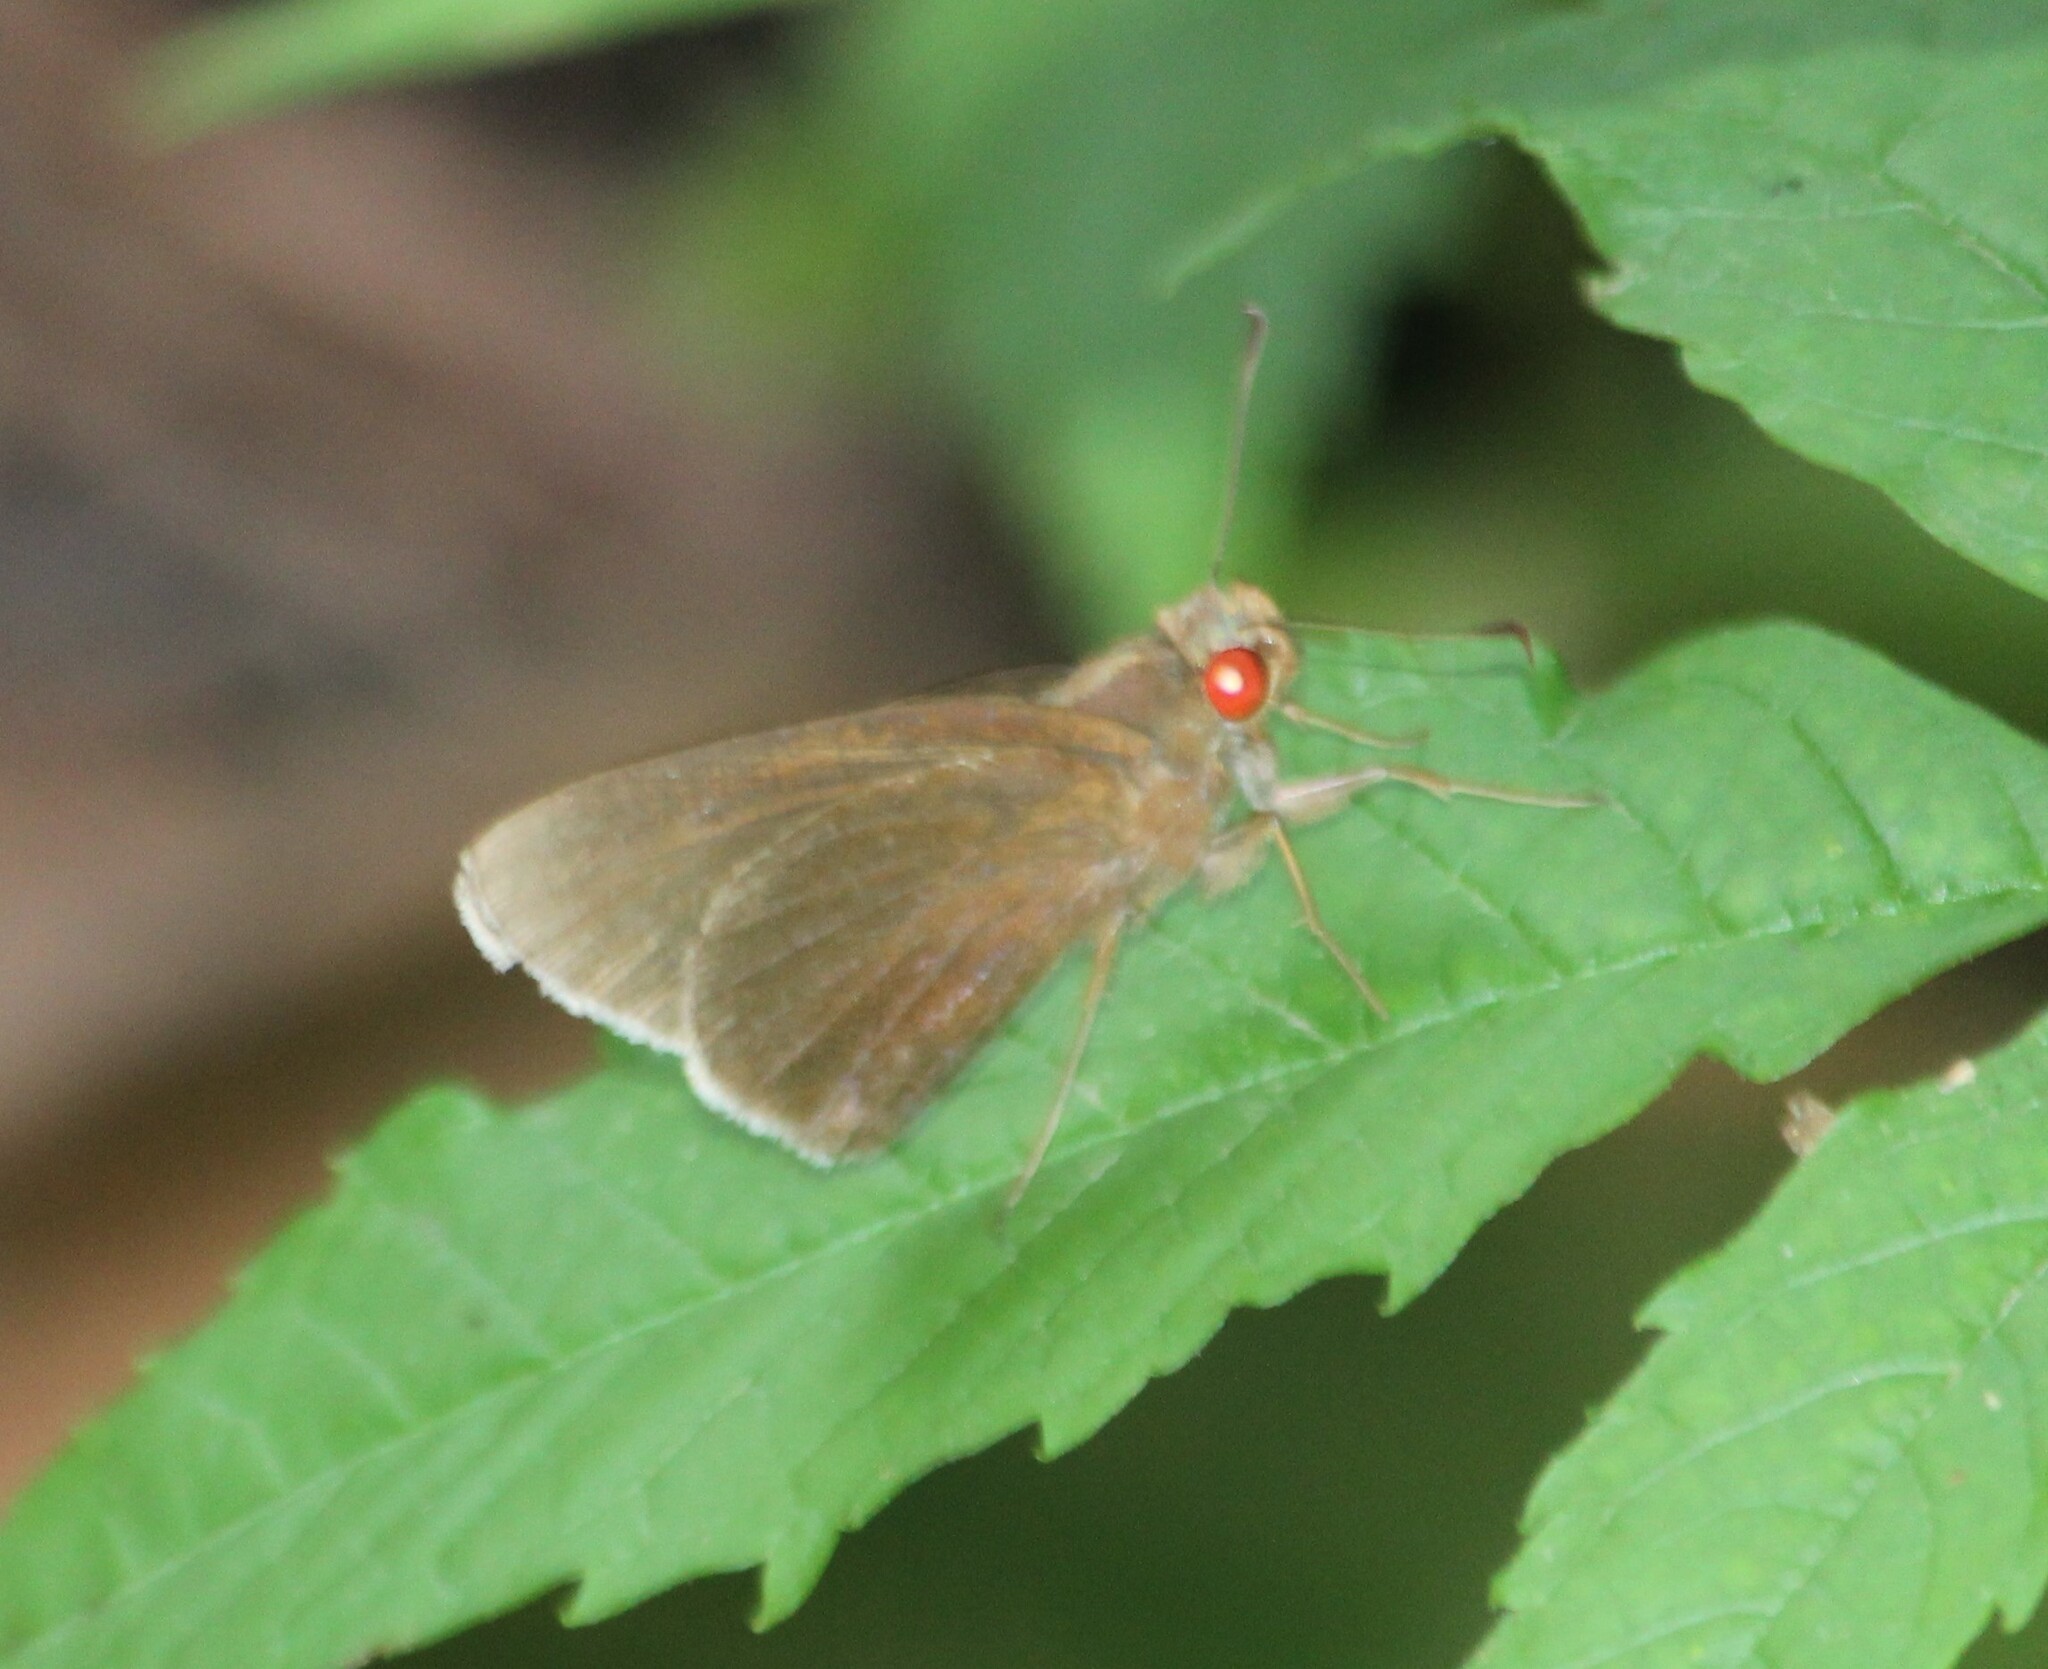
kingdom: Animalia
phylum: Arthropoda
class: Insecta
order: Lepidoptera
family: Hesperiidae
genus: Matapa
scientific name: Matapa aria
